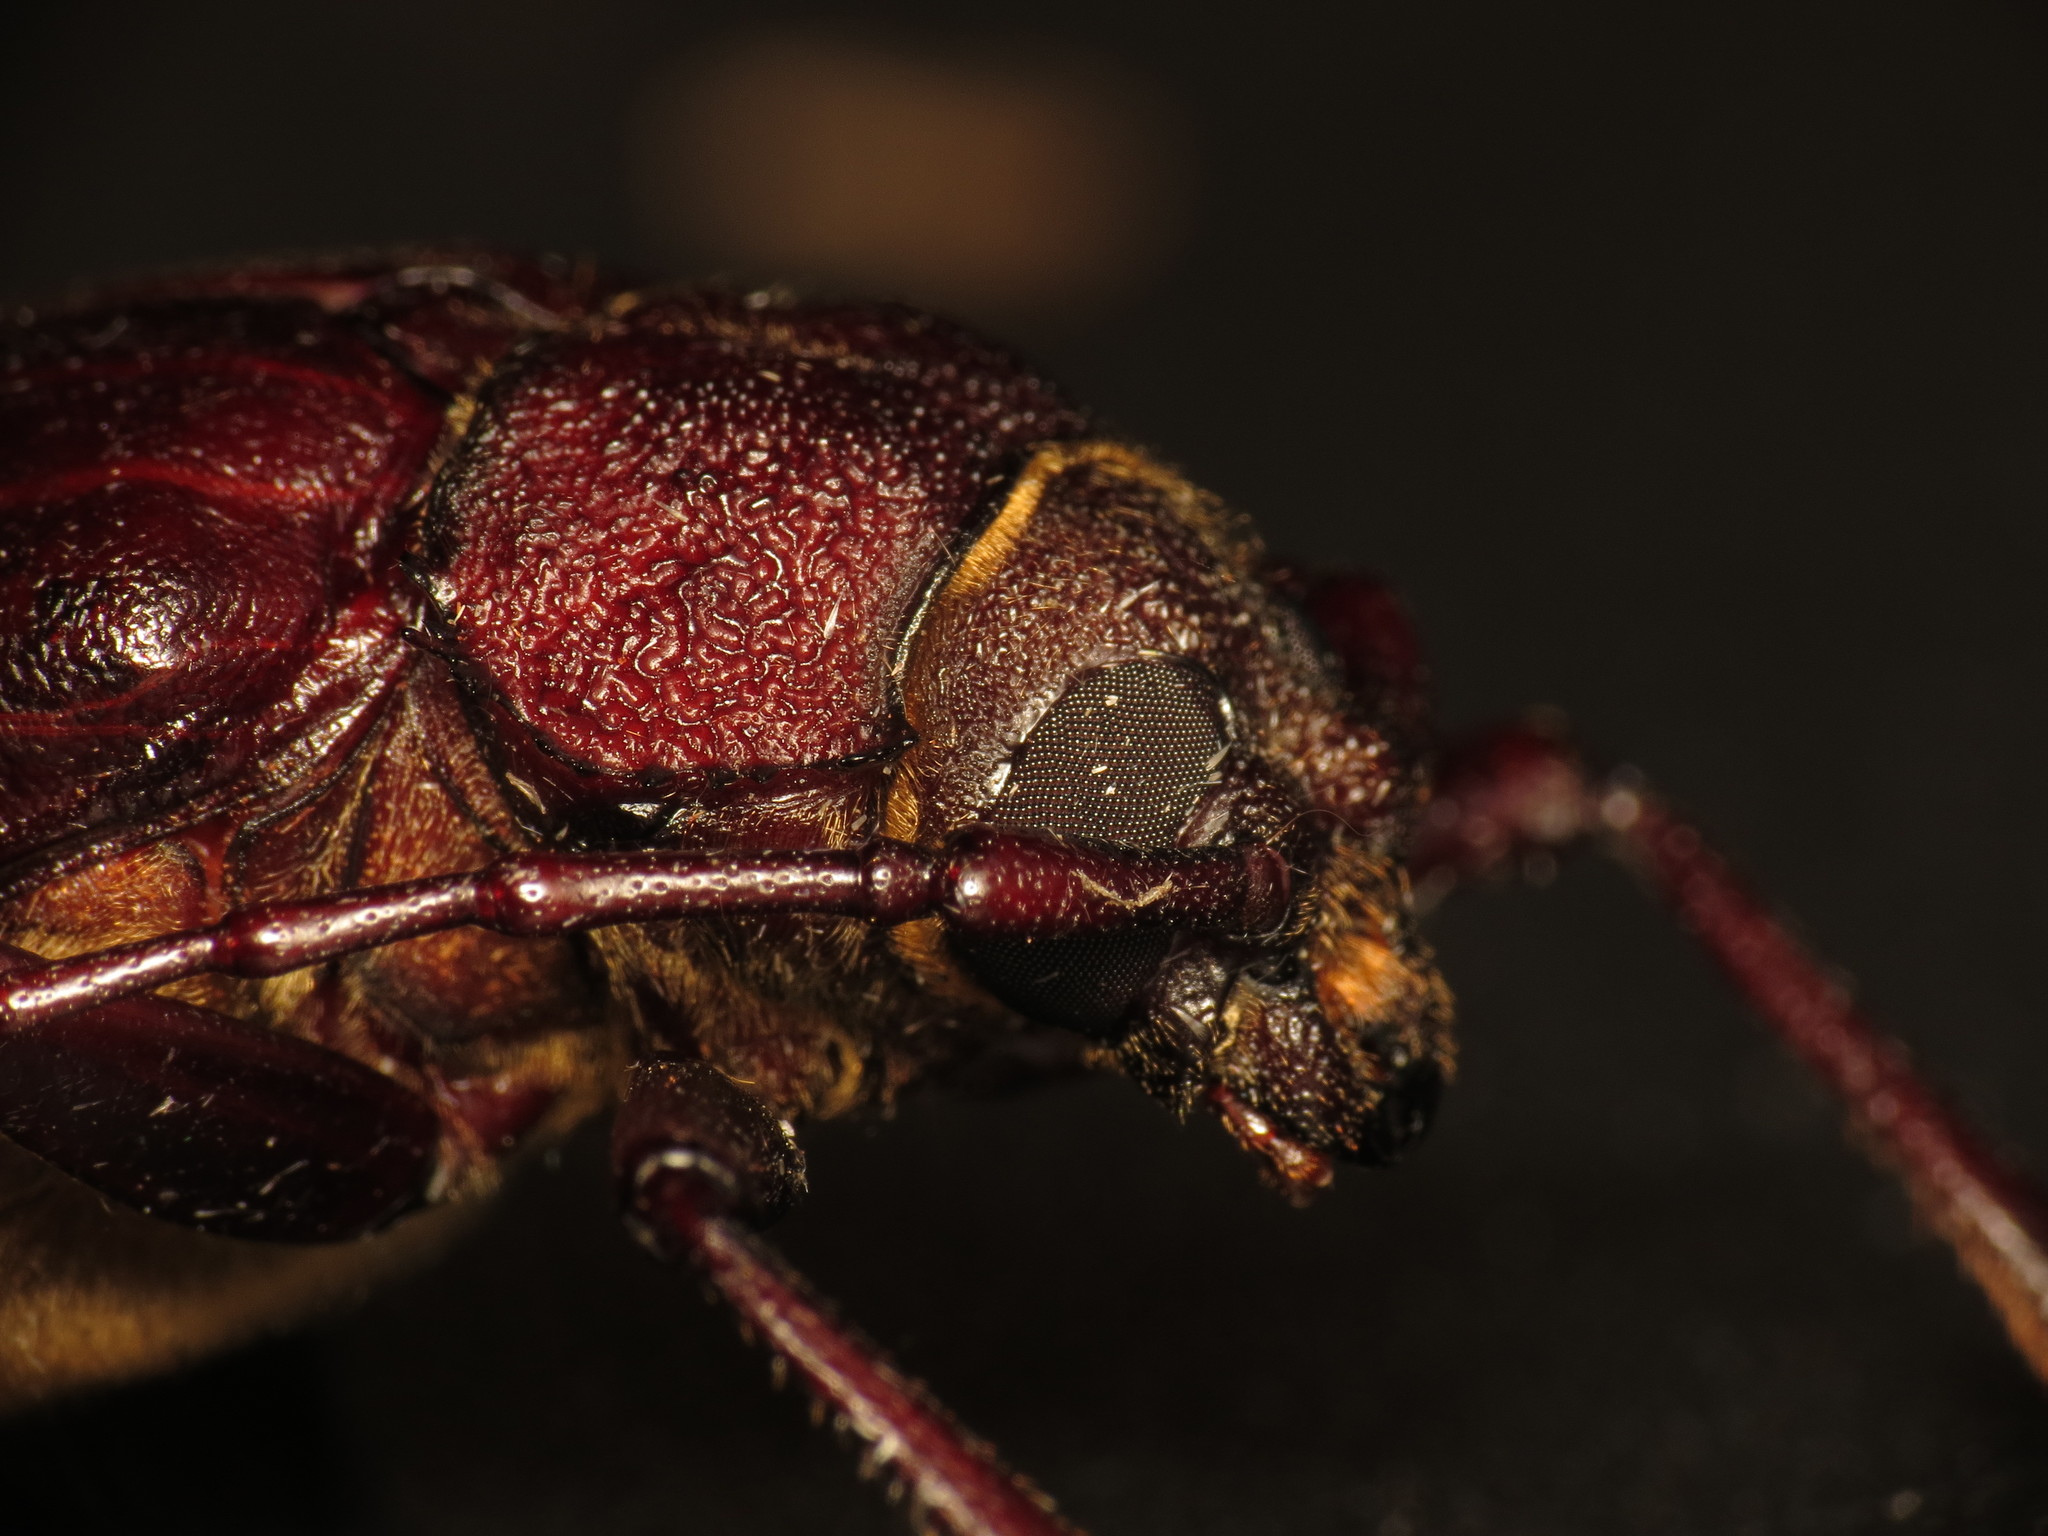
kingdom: Animalia
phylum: Arthropoda
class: Insecta
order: Coleoptera
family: Cerambycidae
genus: Paroplites
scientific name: Paroplites australis
